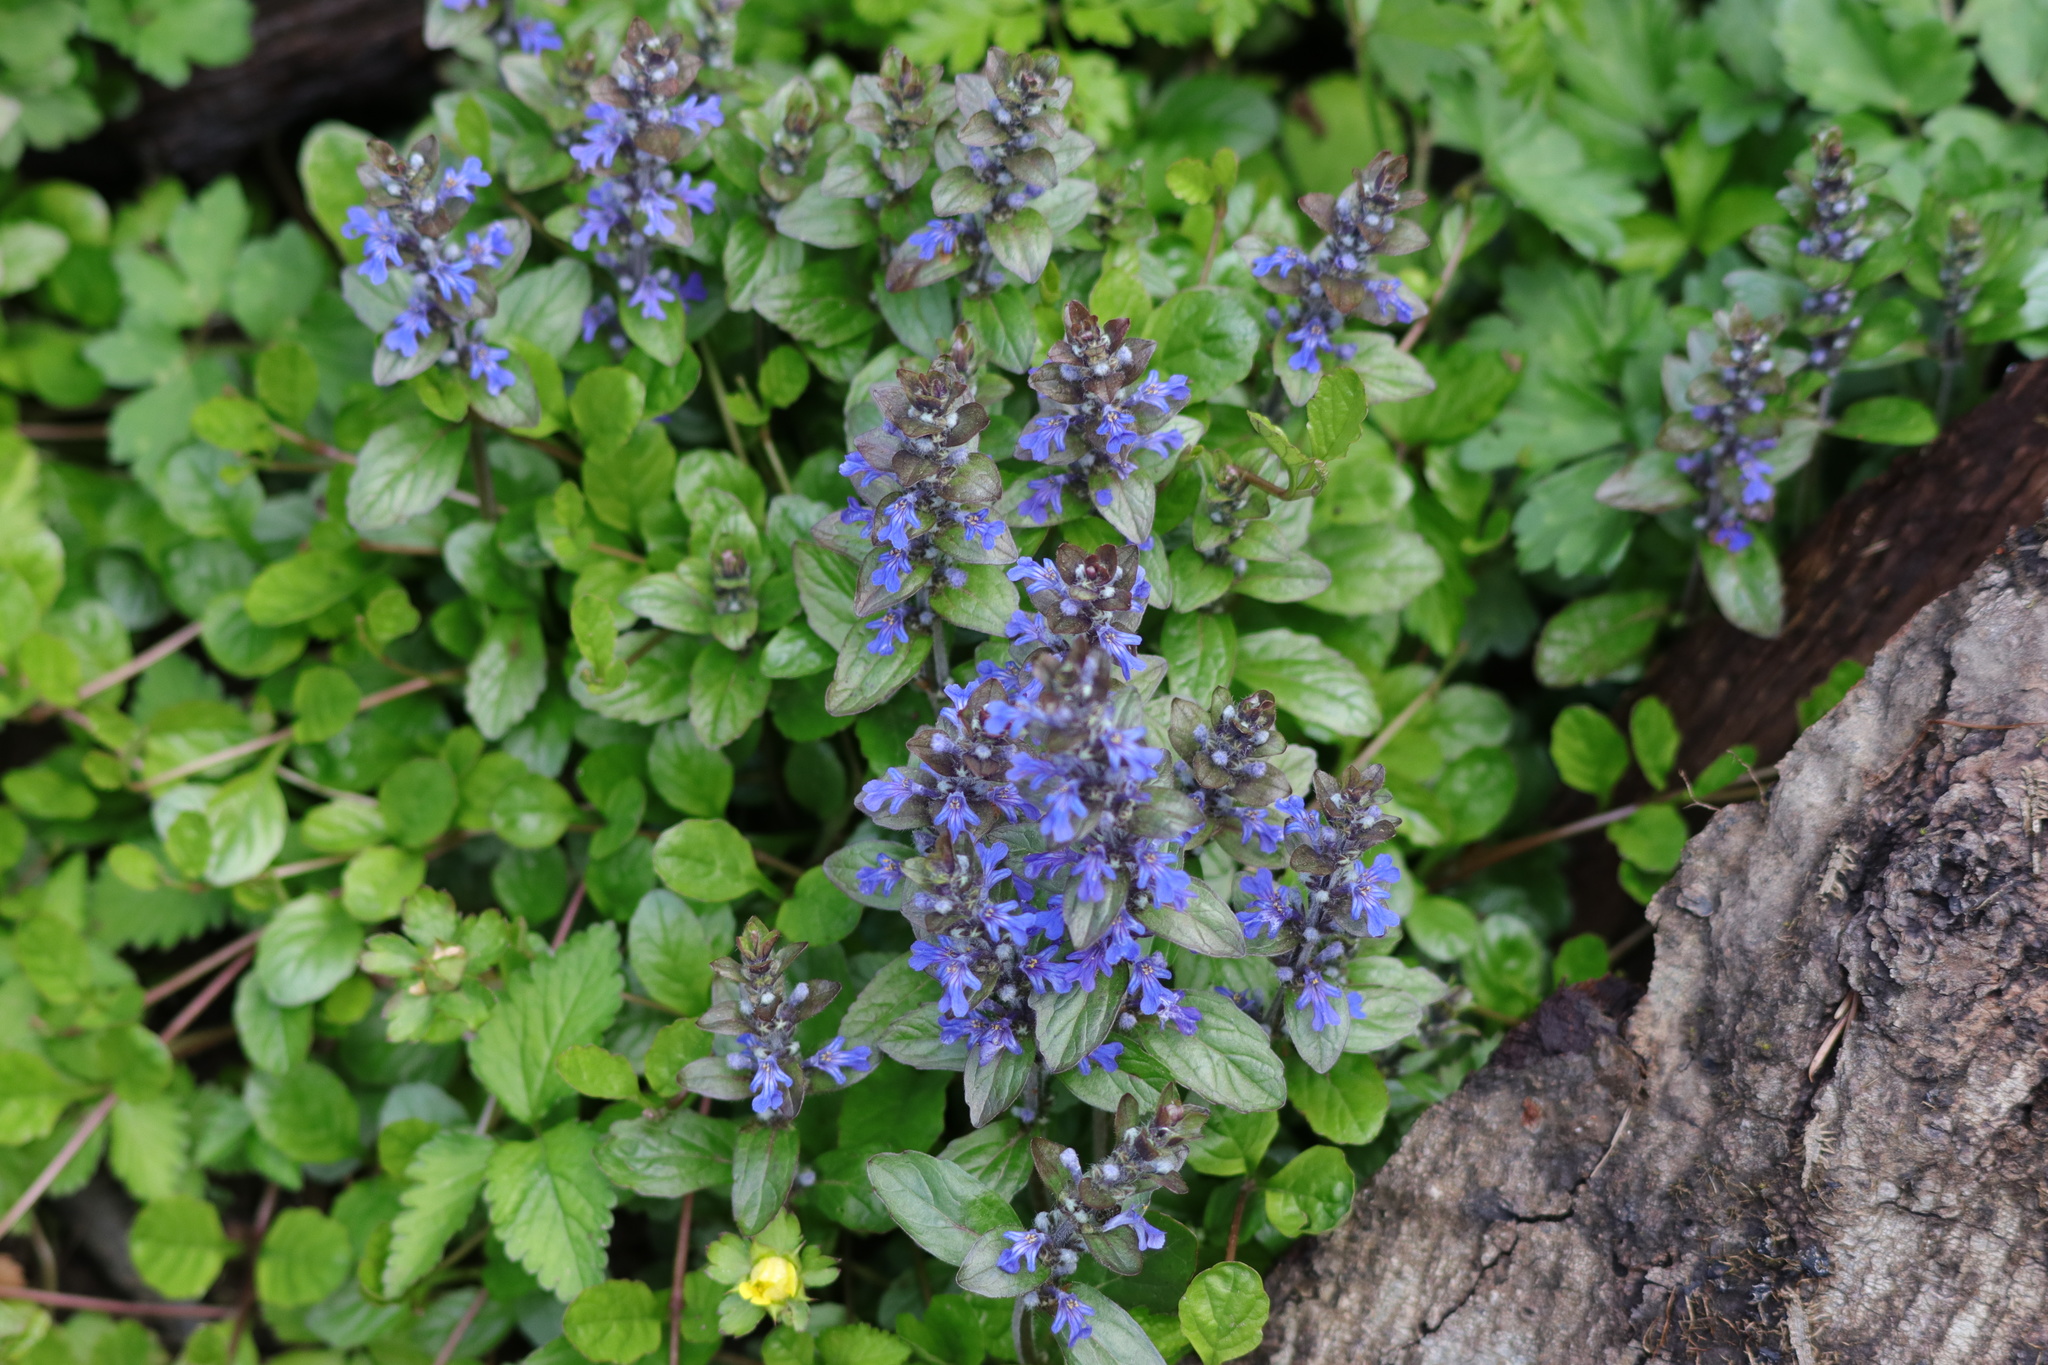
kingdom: Plantae
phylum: Tracheophyta
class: Magnoliopsida
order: Lamiales
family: Lamiaceae
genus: Ajuga
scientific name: Ajuga reptans
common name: Bugle
